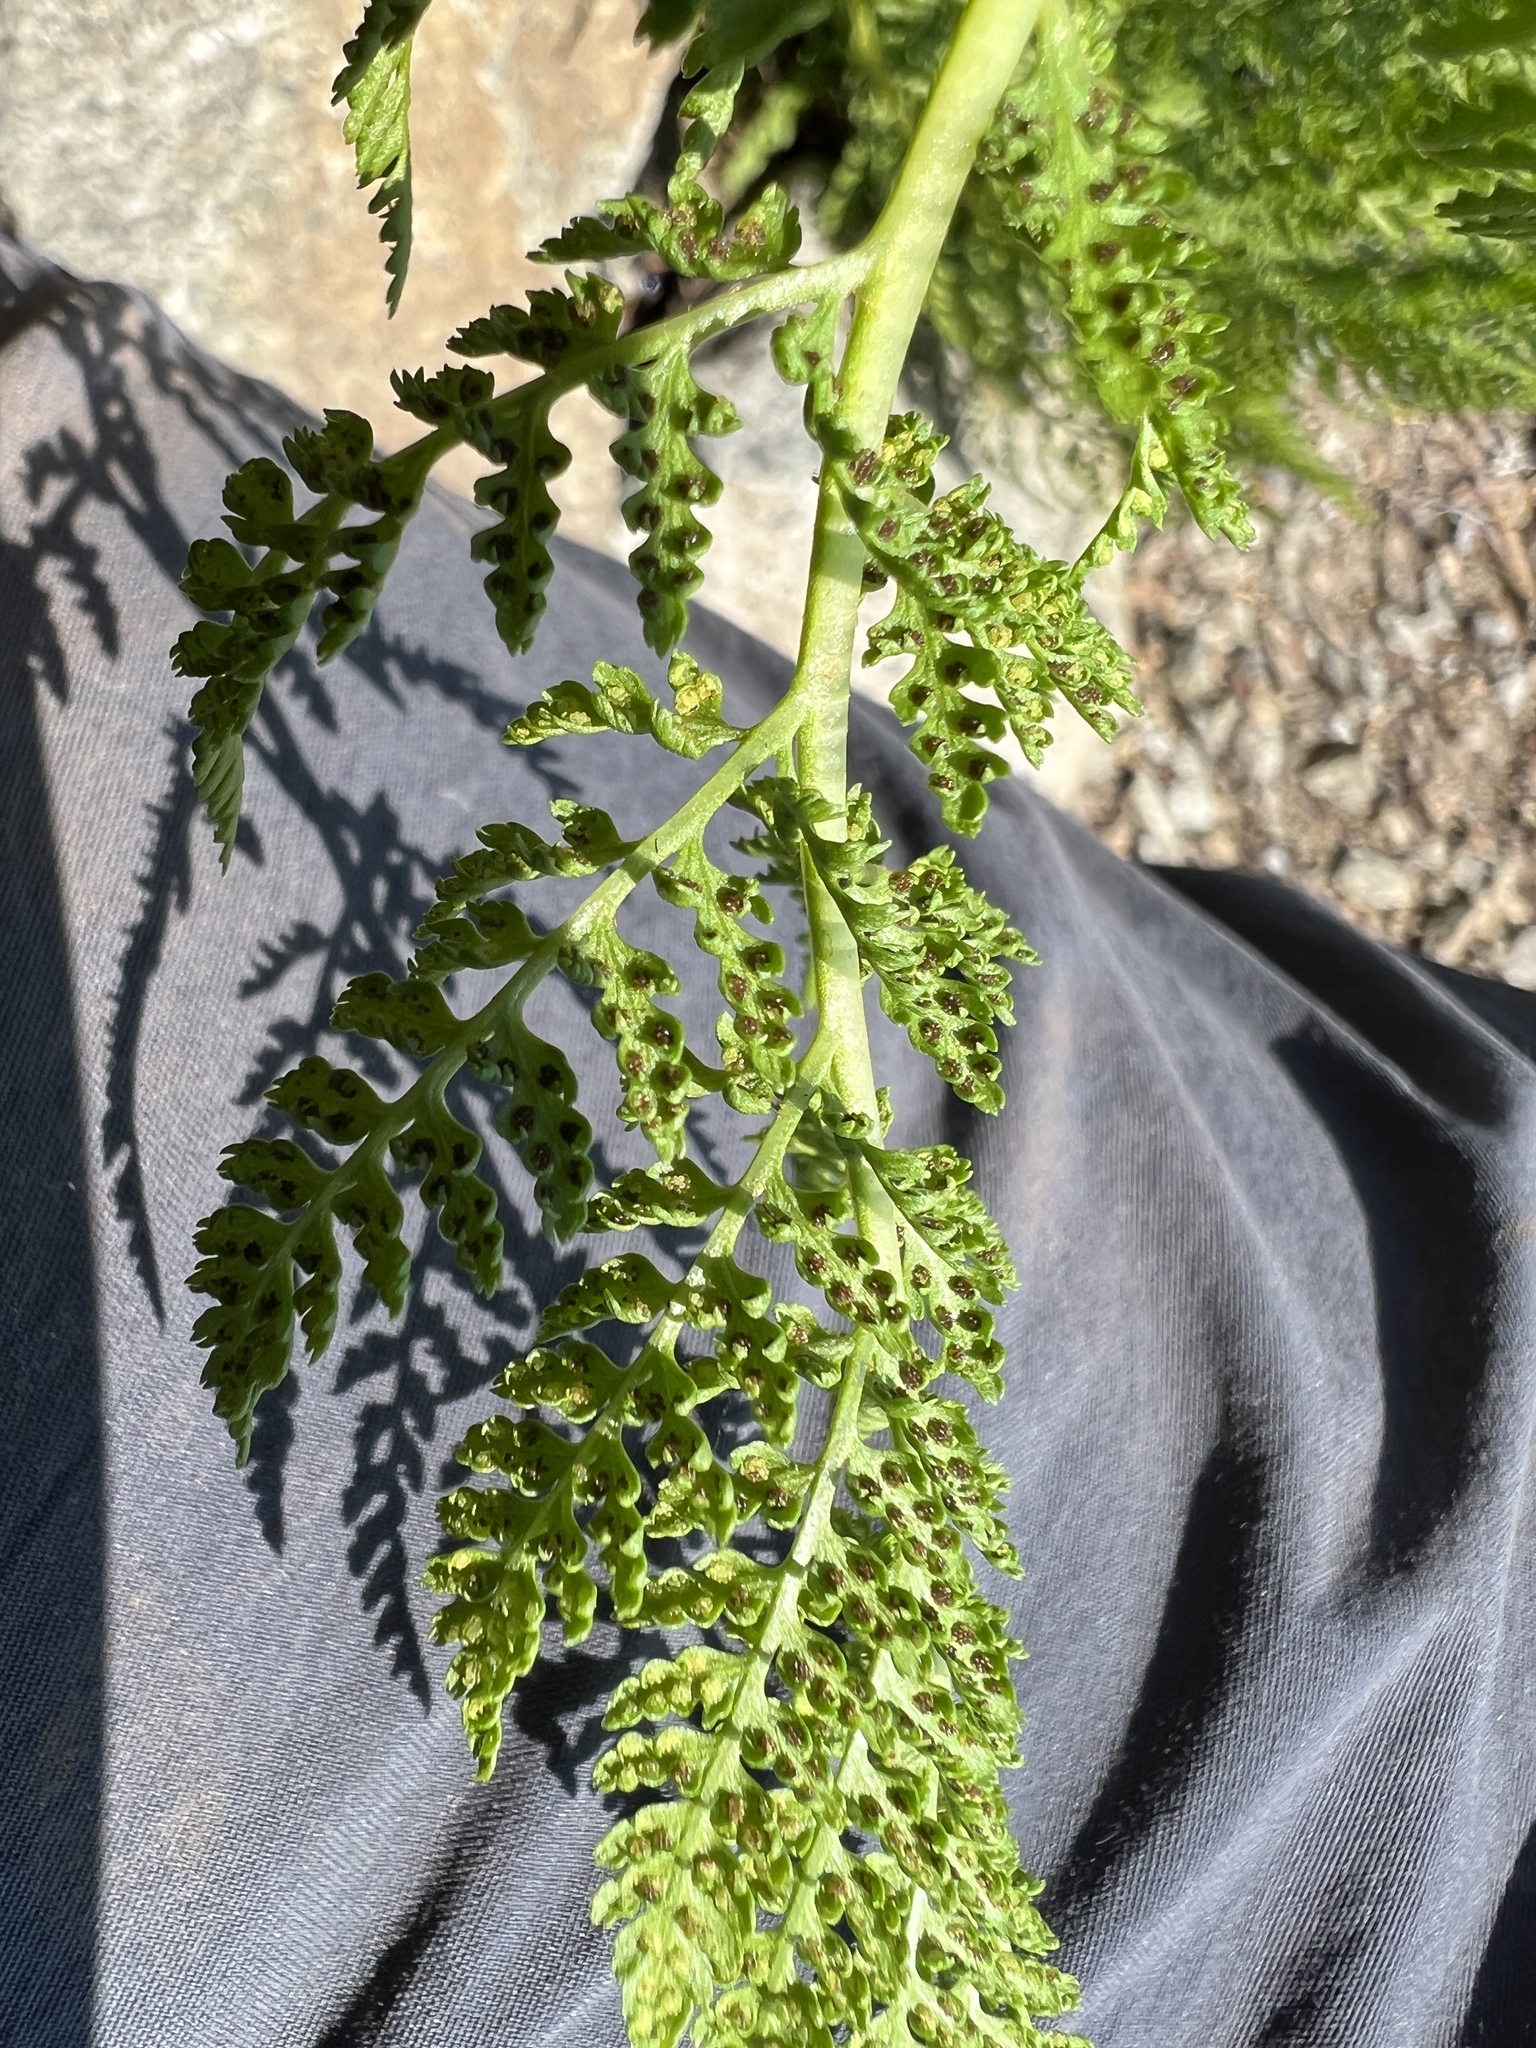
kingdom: Plantae
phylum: Tracheophyta
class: Polypodiopsida
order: Polypodiales
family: Athyriaceae
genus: Athyrium
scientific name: Athyrium americanum
